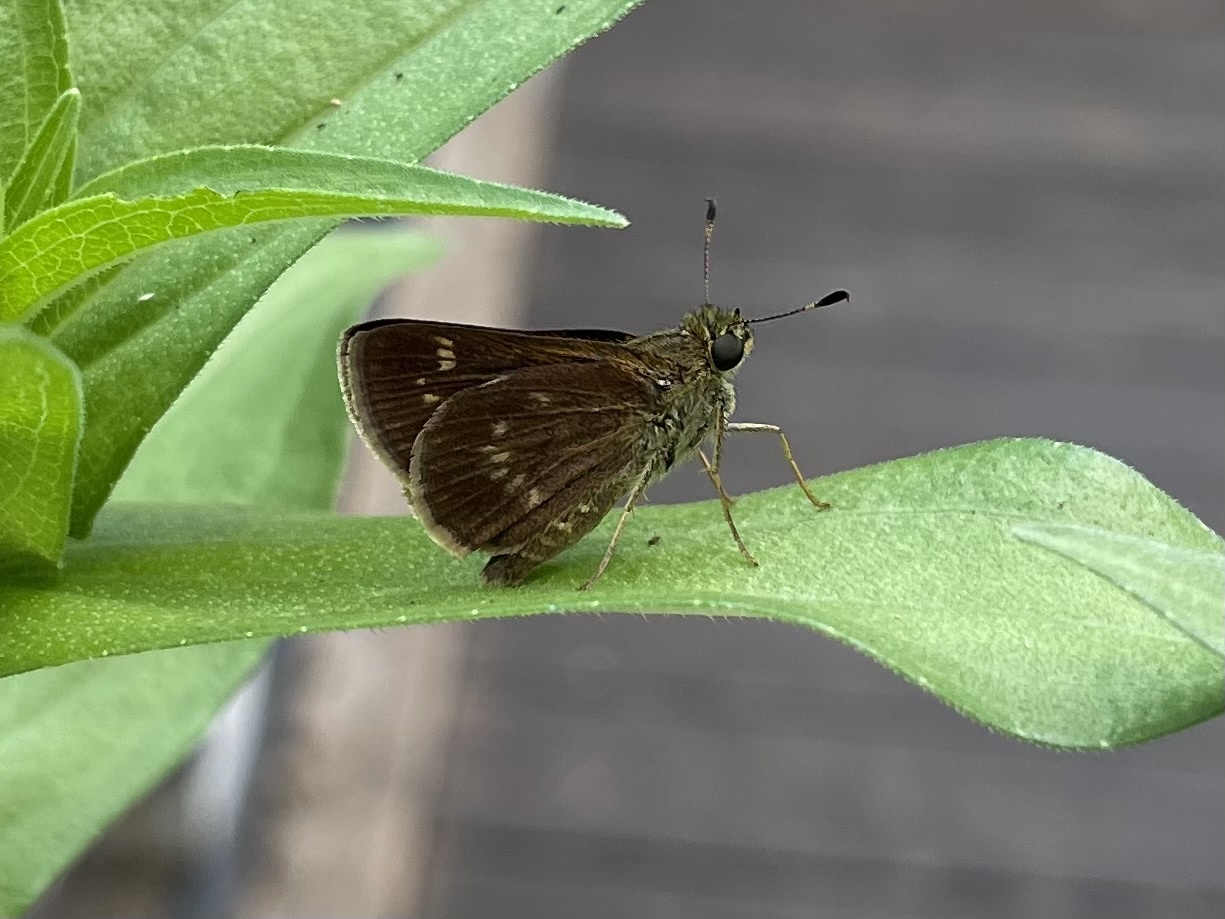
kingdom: Animalia
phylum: Arthropoda
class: Insecta
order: Lepidoptera
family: Hesperiidae
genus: Vernia
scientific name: Vernia verna
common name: Little glassywing
